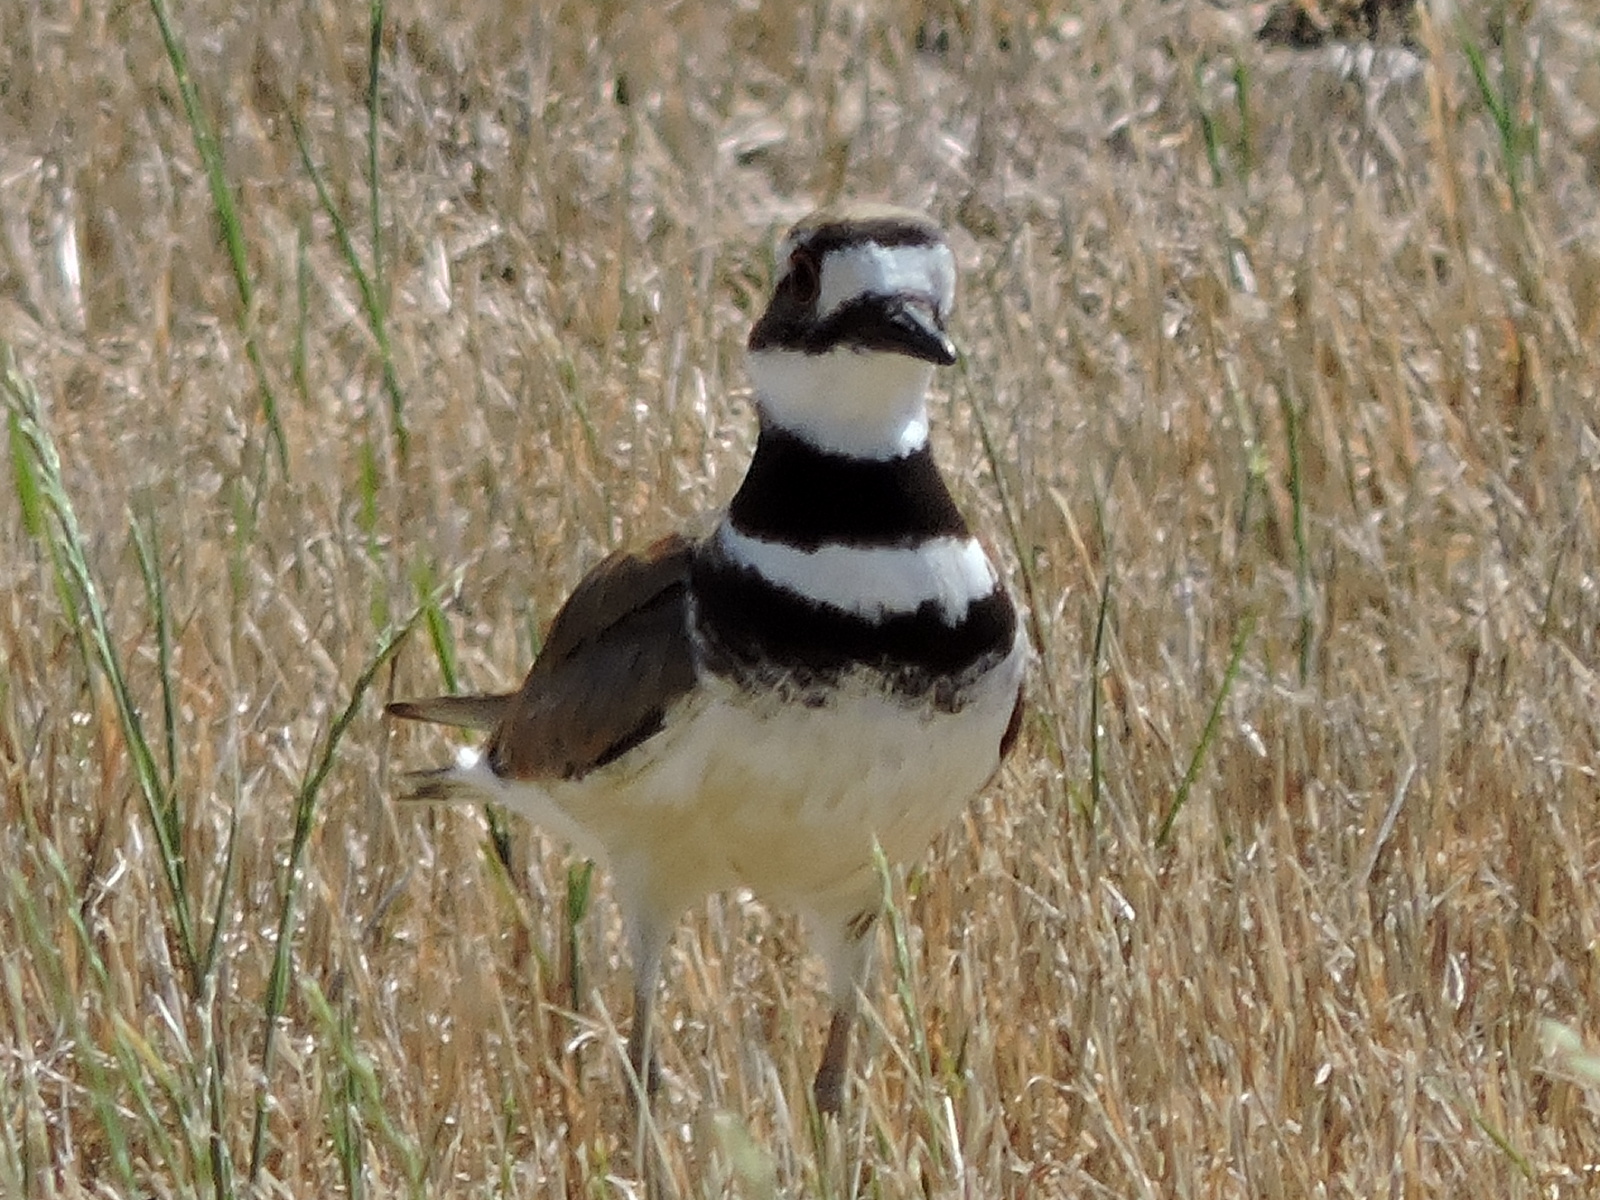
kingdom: Animalia
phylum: Chordata
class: Aves
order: Charadriiformes
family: Charadriidae
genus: Charadrius
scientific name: Charadrius vociferus
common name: Killdeer
